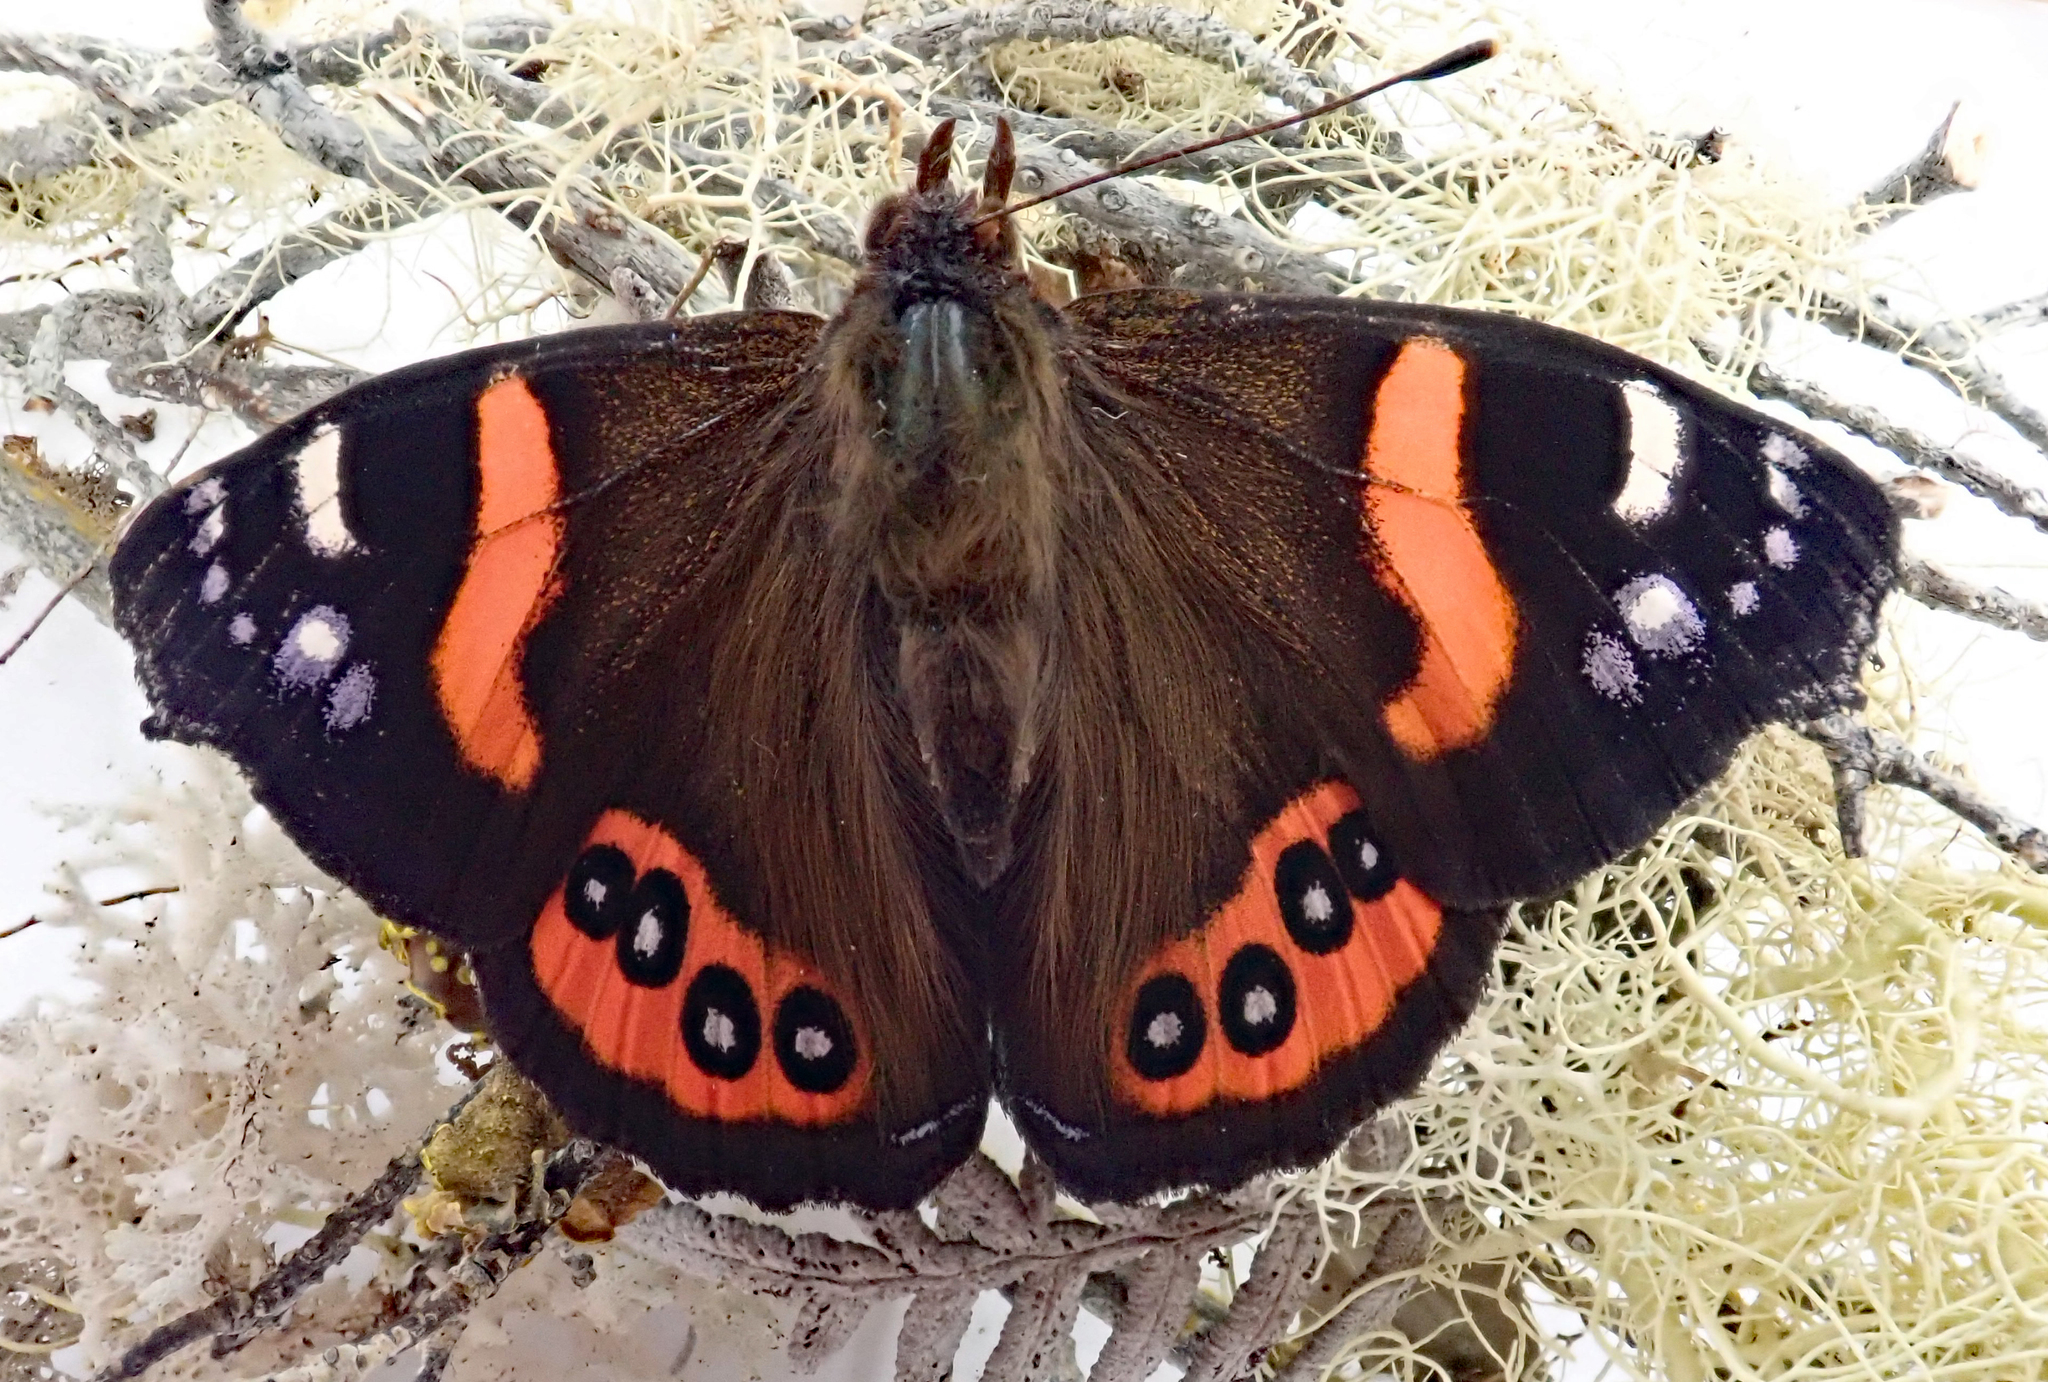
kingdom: Animalia
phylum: Arthropoda
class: Insecta
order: Lepidoptera
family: Nymphalidae
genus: Vanessa
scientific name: Vanessa gonerilla
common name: New zealand red admiral
